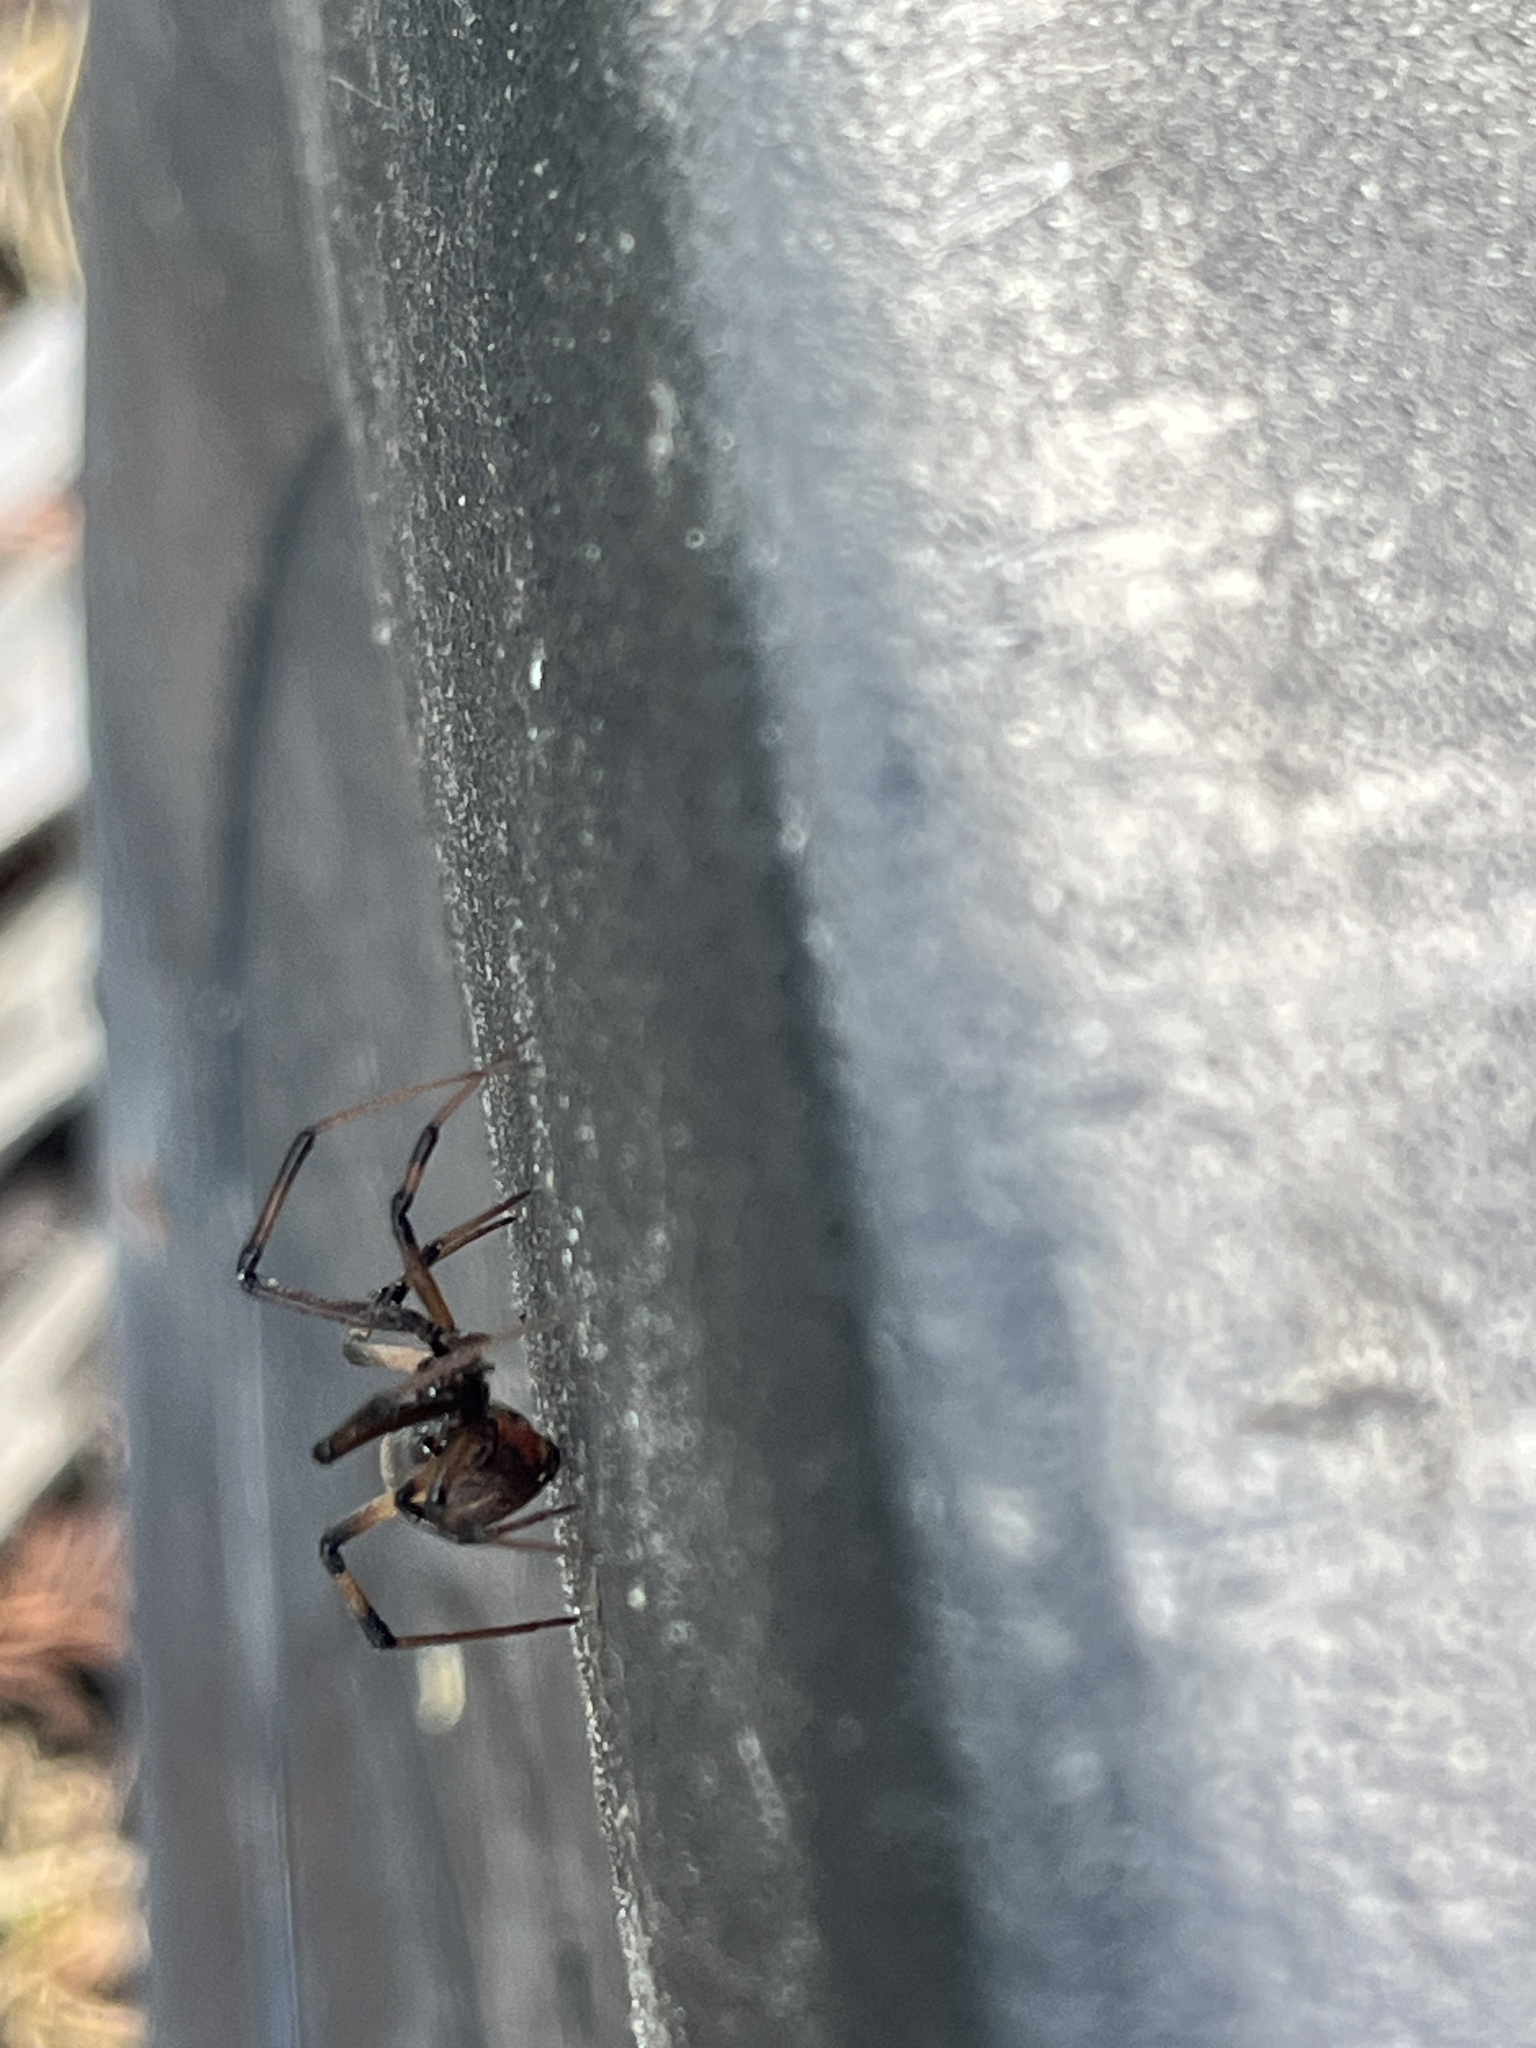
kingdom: Animalia
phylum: Arthropoda
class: Arachnida
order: Araneae
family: Theridiidae
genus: Latrodectus
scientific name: Latrodectus geometricus
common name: Brown widow spider
